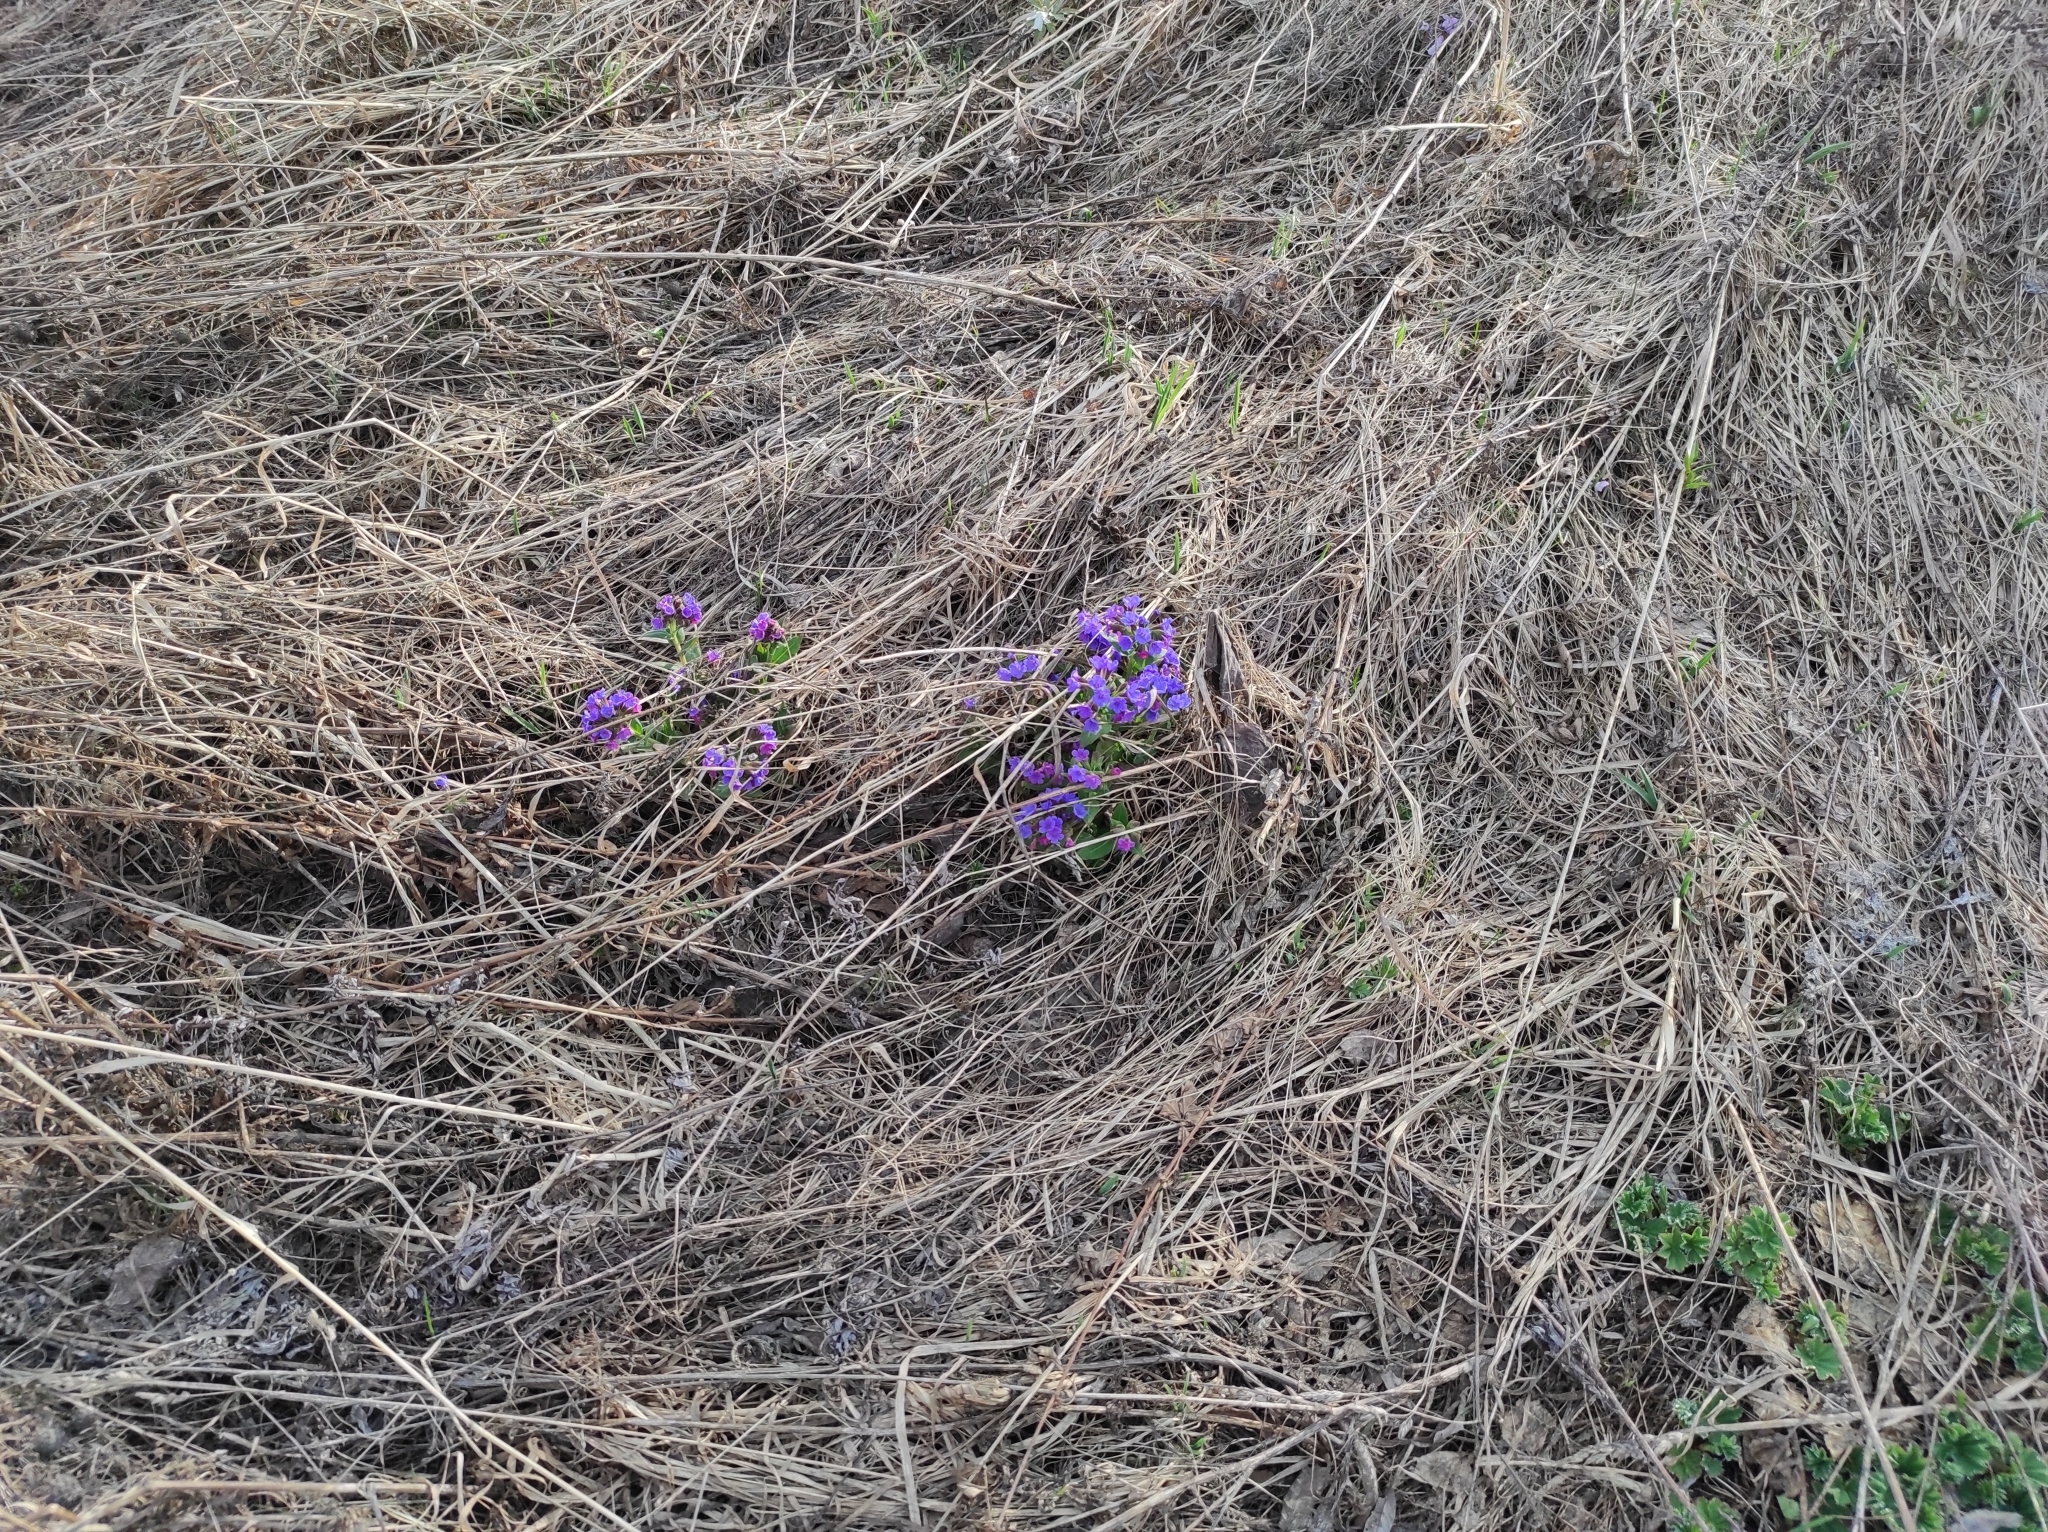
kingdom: Plantae
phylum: Tracheophyta
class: Magnoliopsida
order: Boraginales
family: Boraginaceae
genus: Pulmonaria
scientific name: Pulmonaria mollis
